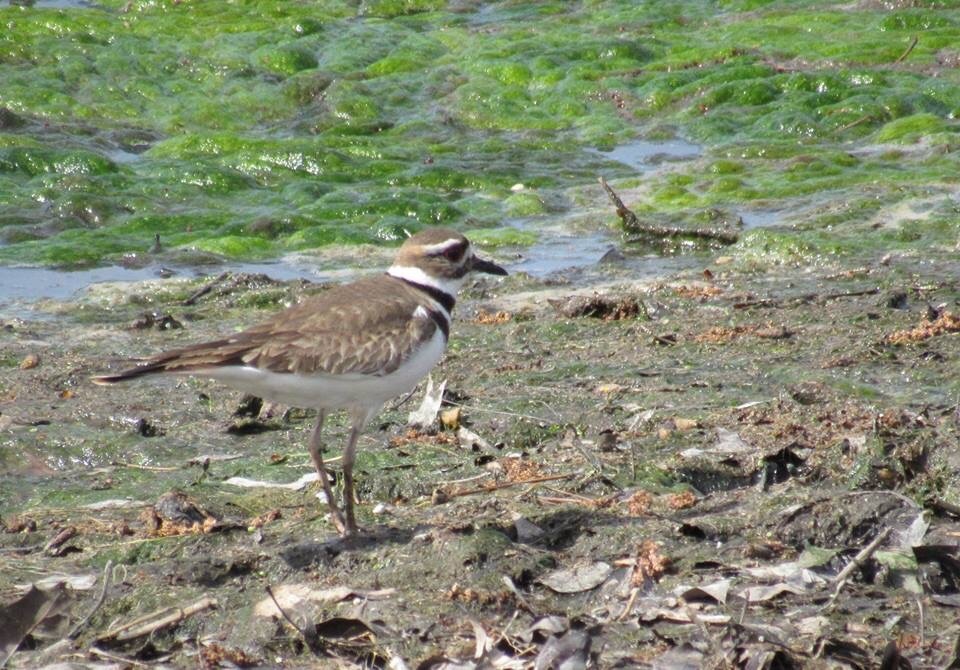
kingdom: Animalia
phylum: Chordata
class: Aves
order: Charadriiformes
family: Charadriidae
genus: Charadrius
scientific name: Charadrius vociferus
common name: Killdeer
